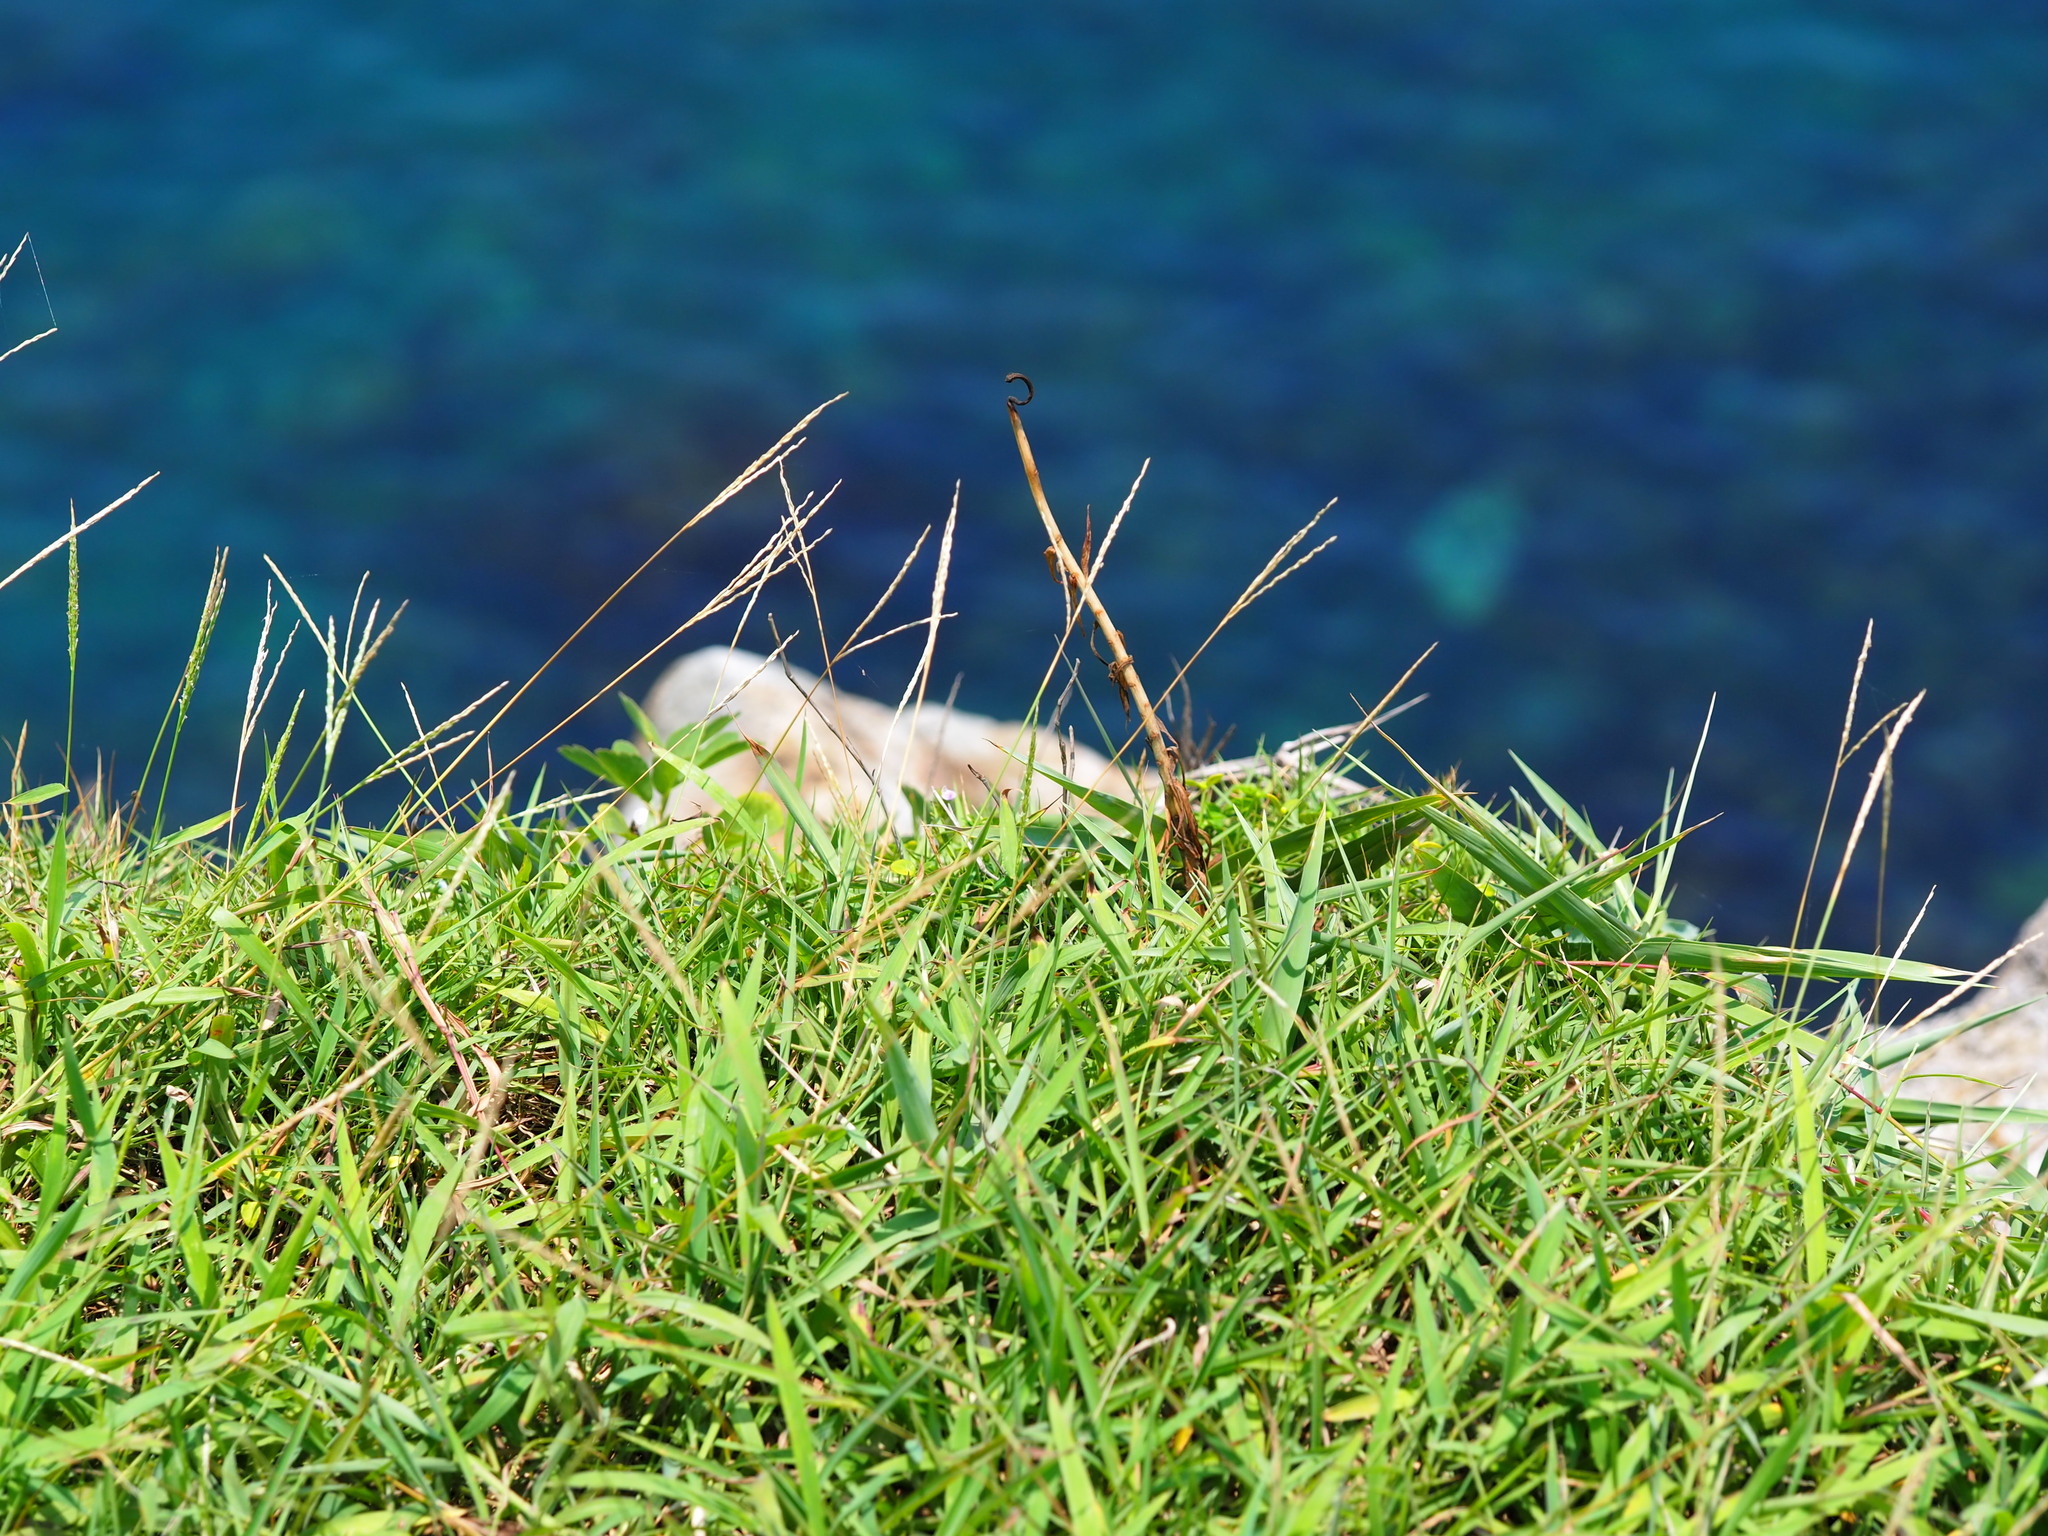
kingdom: Plantae
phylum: Tracheophyta
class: Liliopsida
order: Poales
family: Poaceae
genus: Digitaria
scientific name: Digitaria ciliaris
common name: Tropical finger-grass
